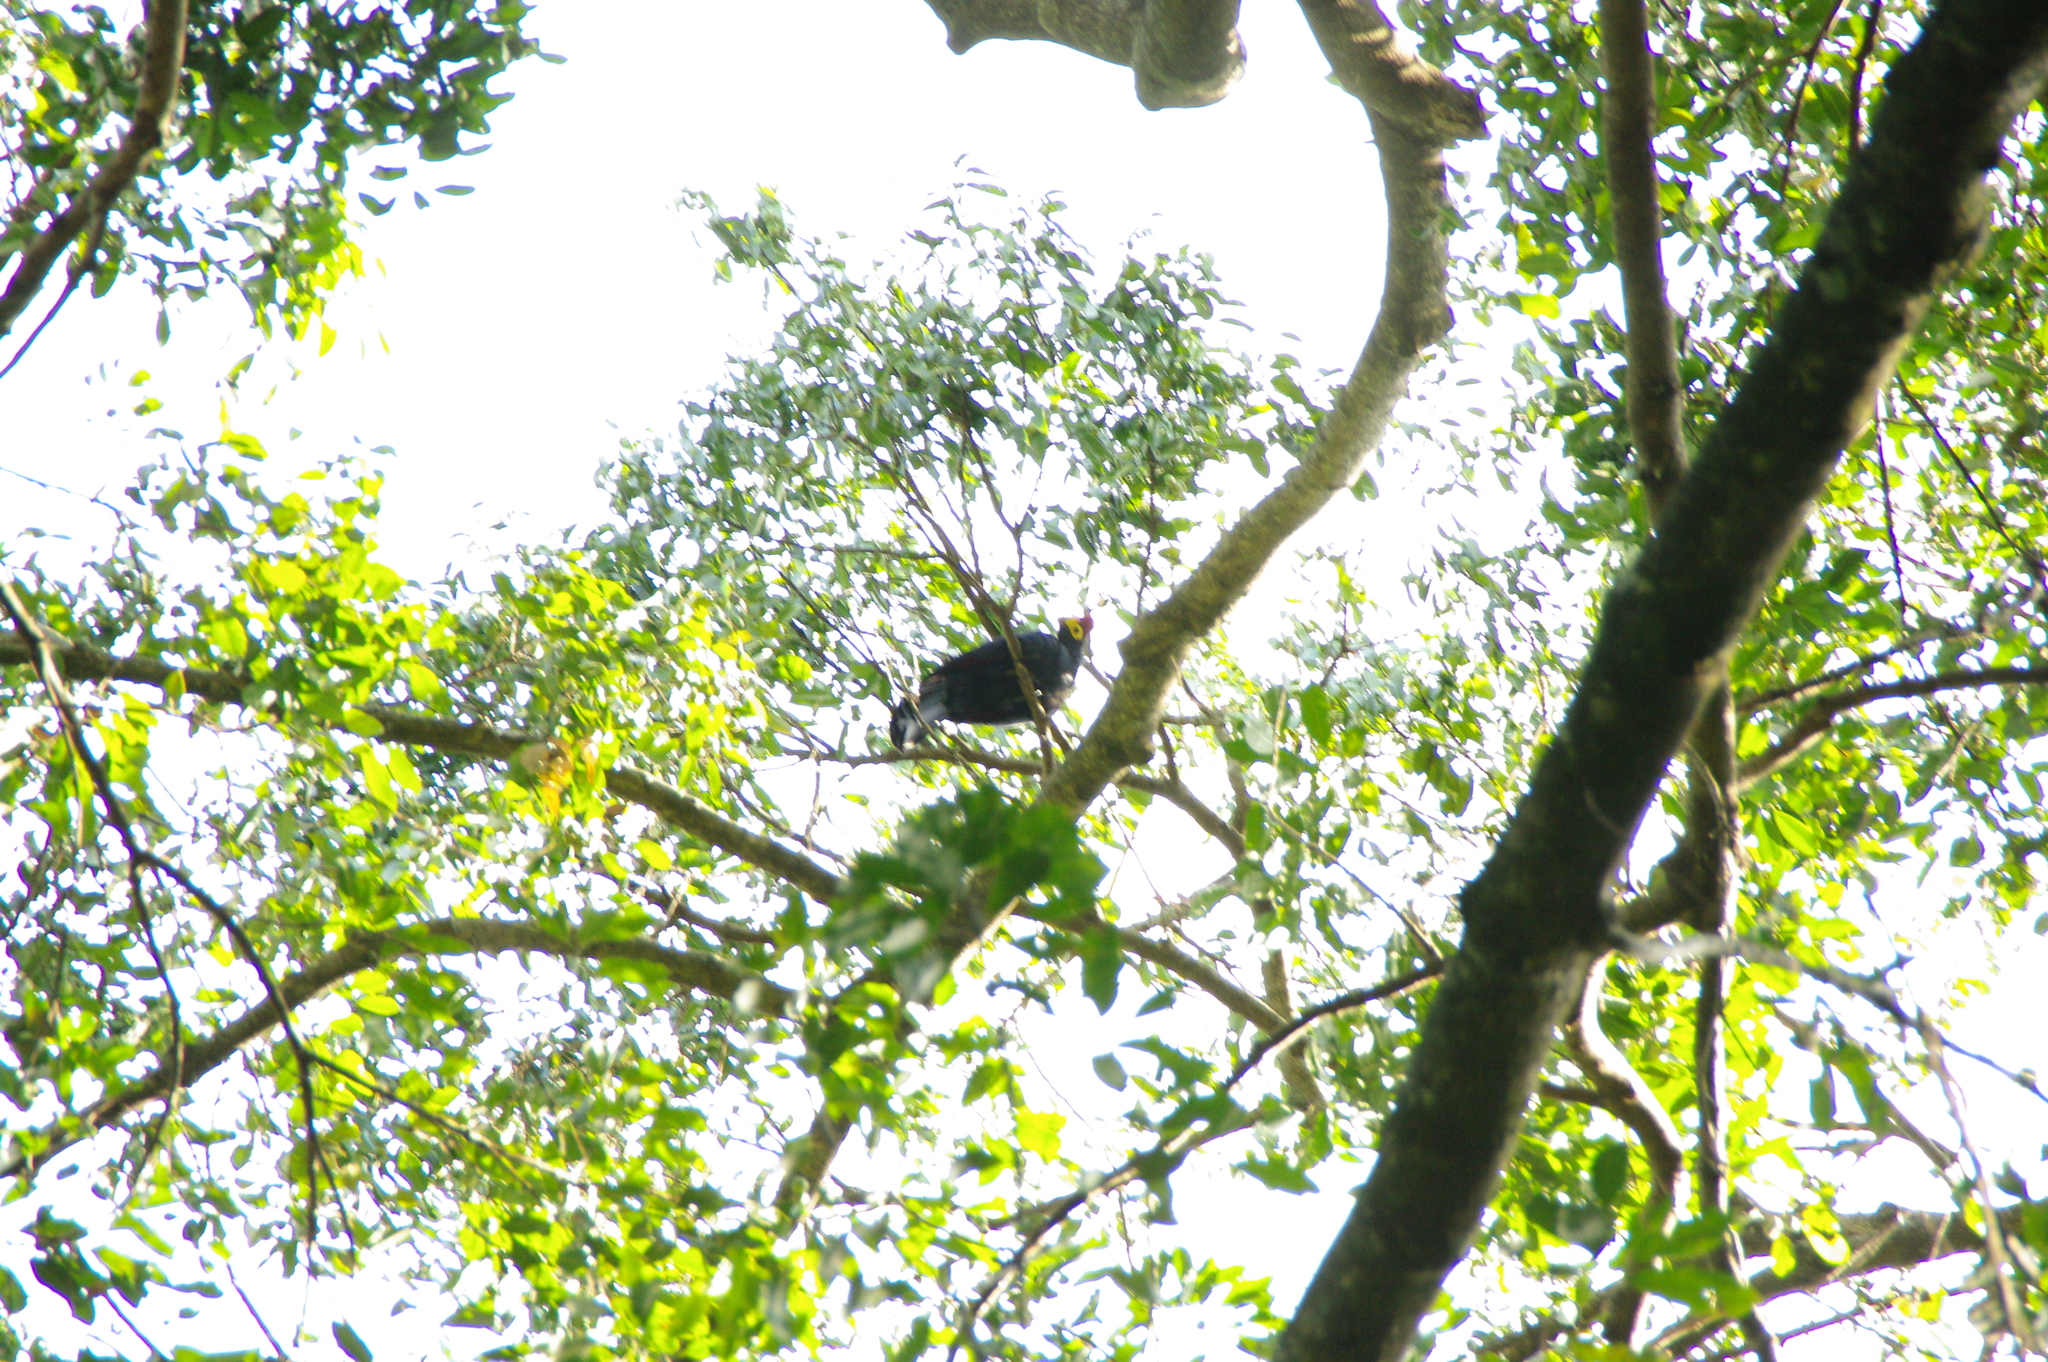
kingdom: Animalia
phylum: Chordata
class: Aves
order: Musophagiformes
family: Musophagidae
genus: Musophaga
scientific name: Musophaga rossae
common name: Ross's turaco
